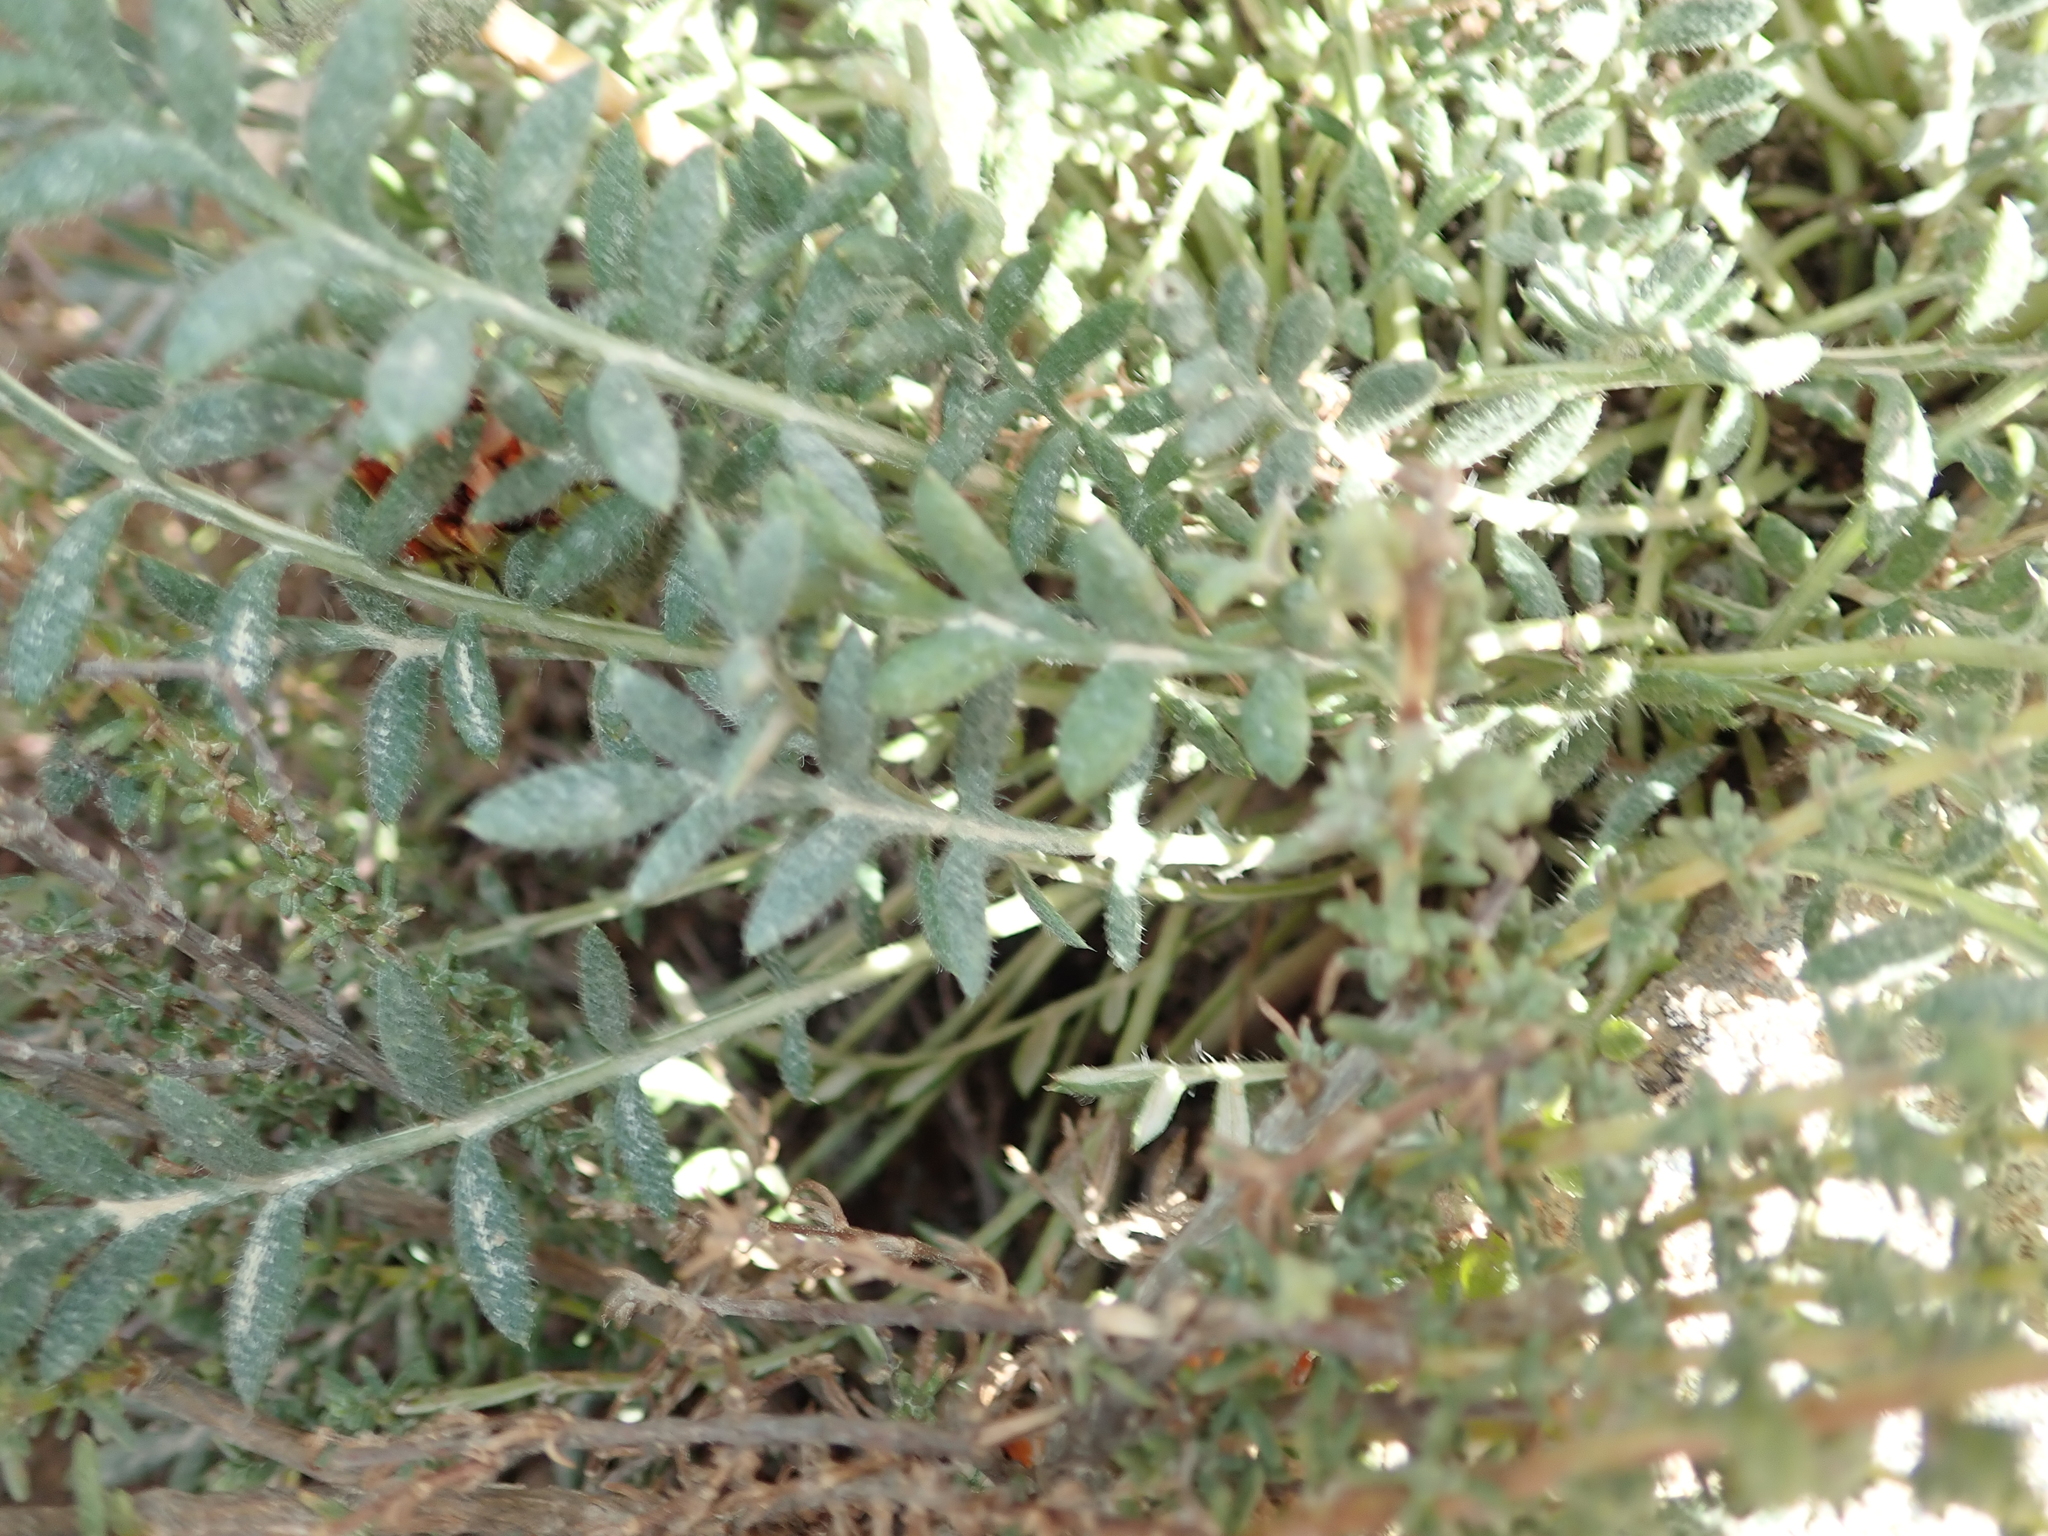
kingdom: Plantae
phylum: Tracheophyta
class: Magnoliopsida
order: Asterales
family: Asteraceae
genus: Gazania
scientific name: Gazania leiopoda
